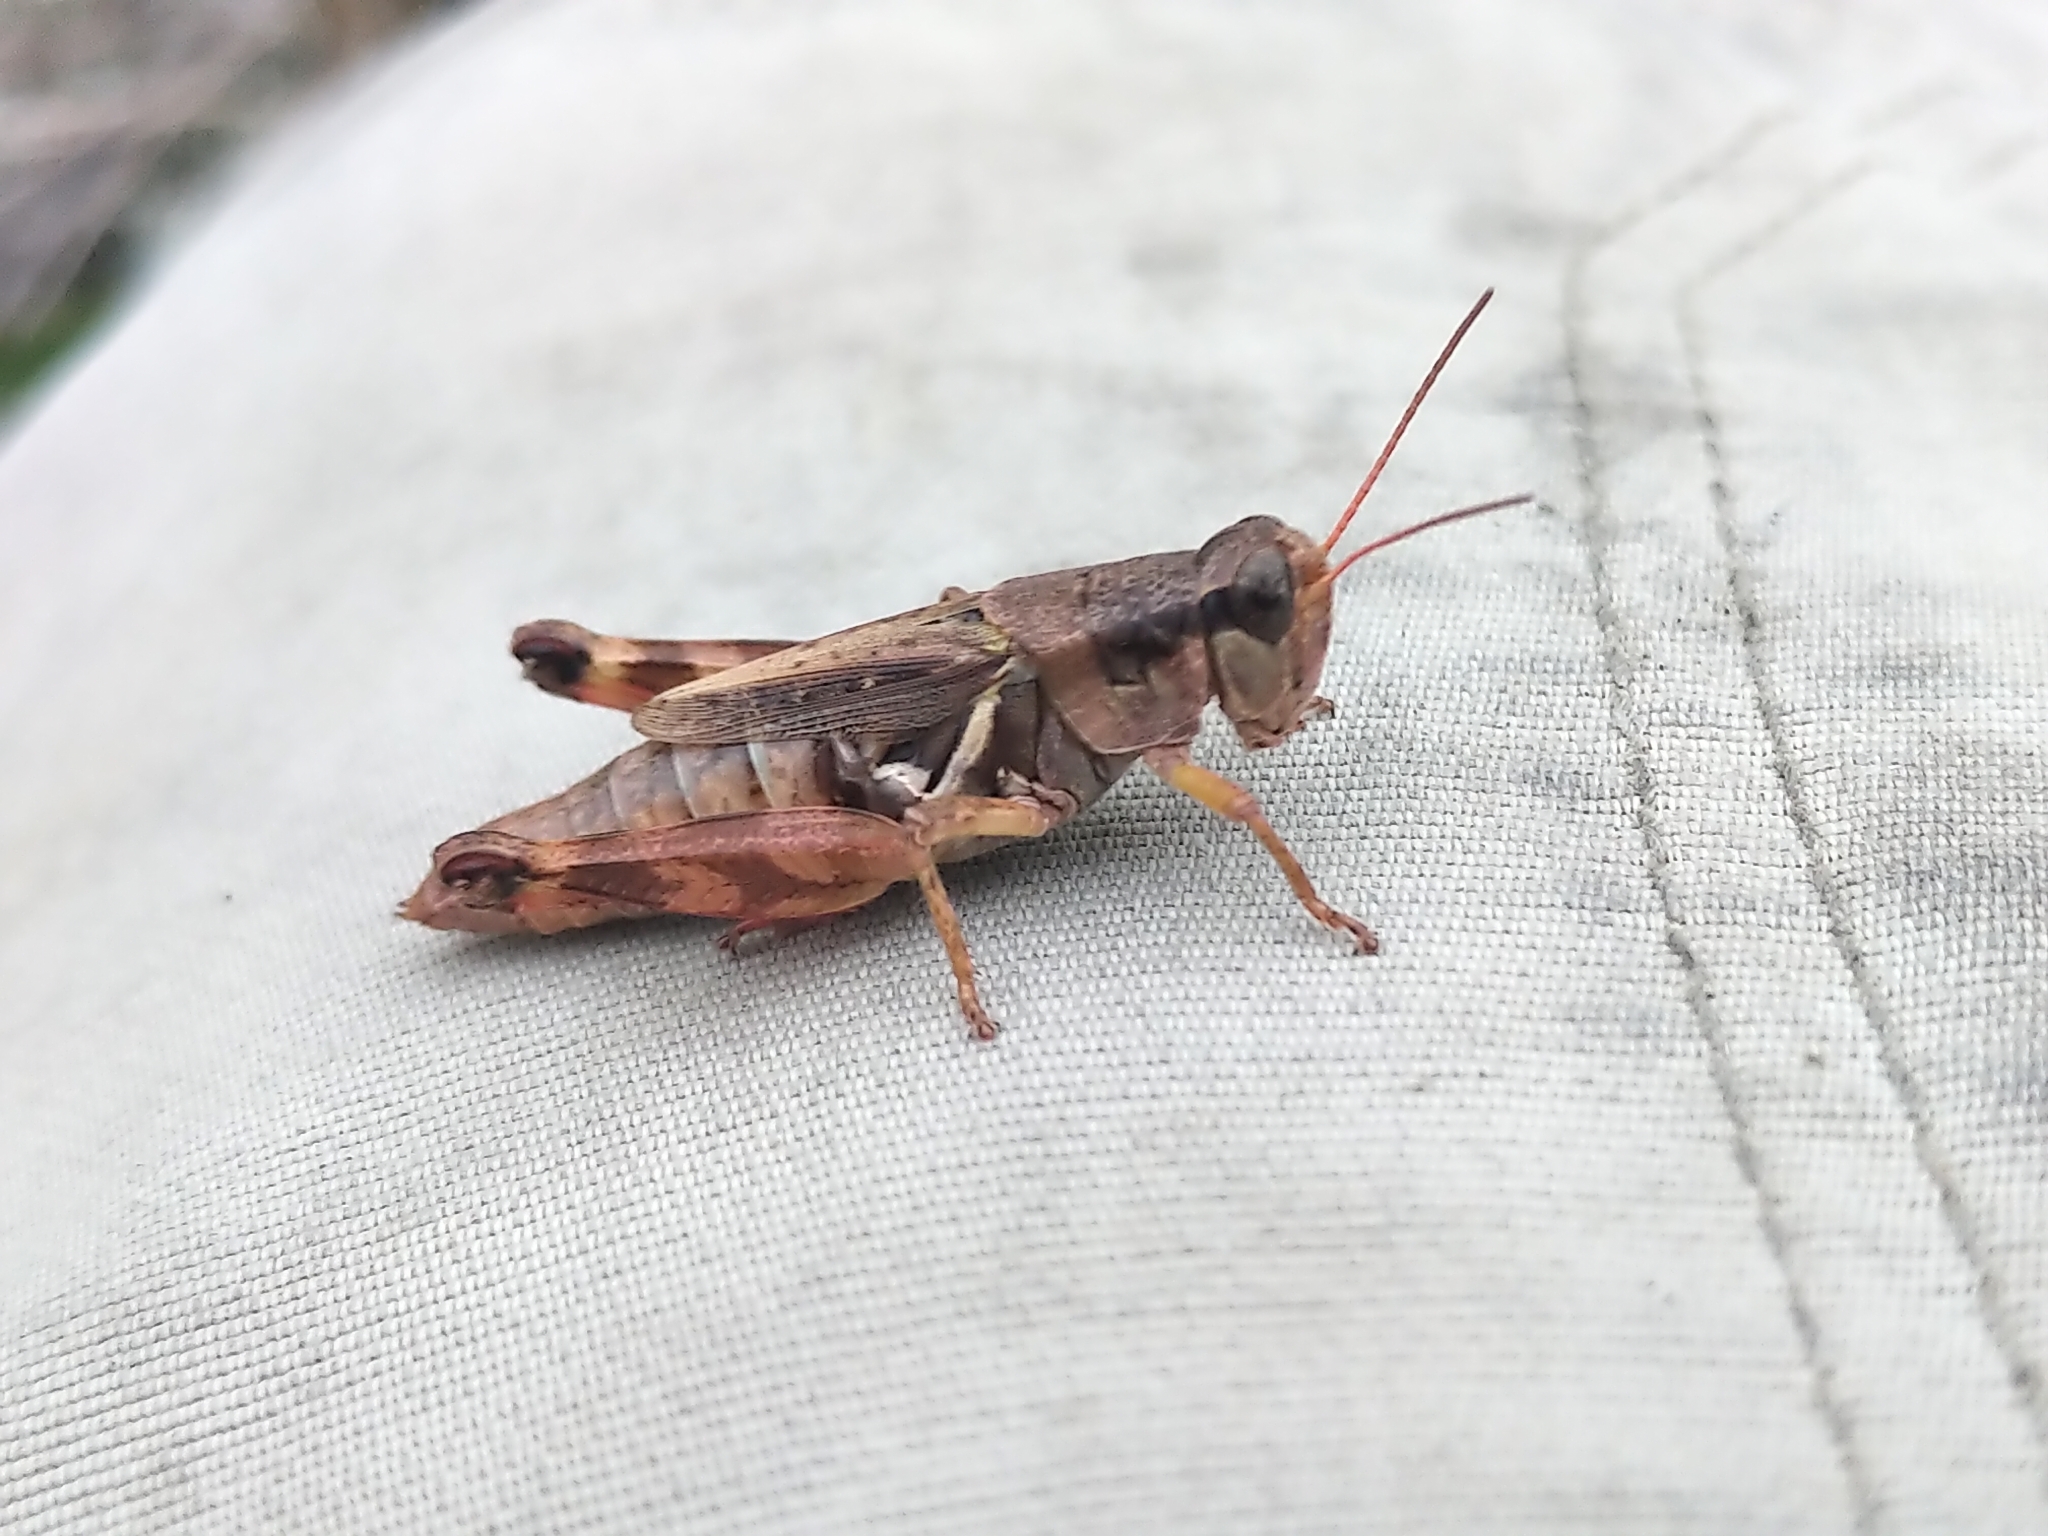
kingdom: Animalia
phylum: Arthropoda
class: Insecta
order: Orthoptera
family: Acrididae
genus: Melanoplus
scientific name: Melanoplus fasciatus
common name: Huckleberry locust
